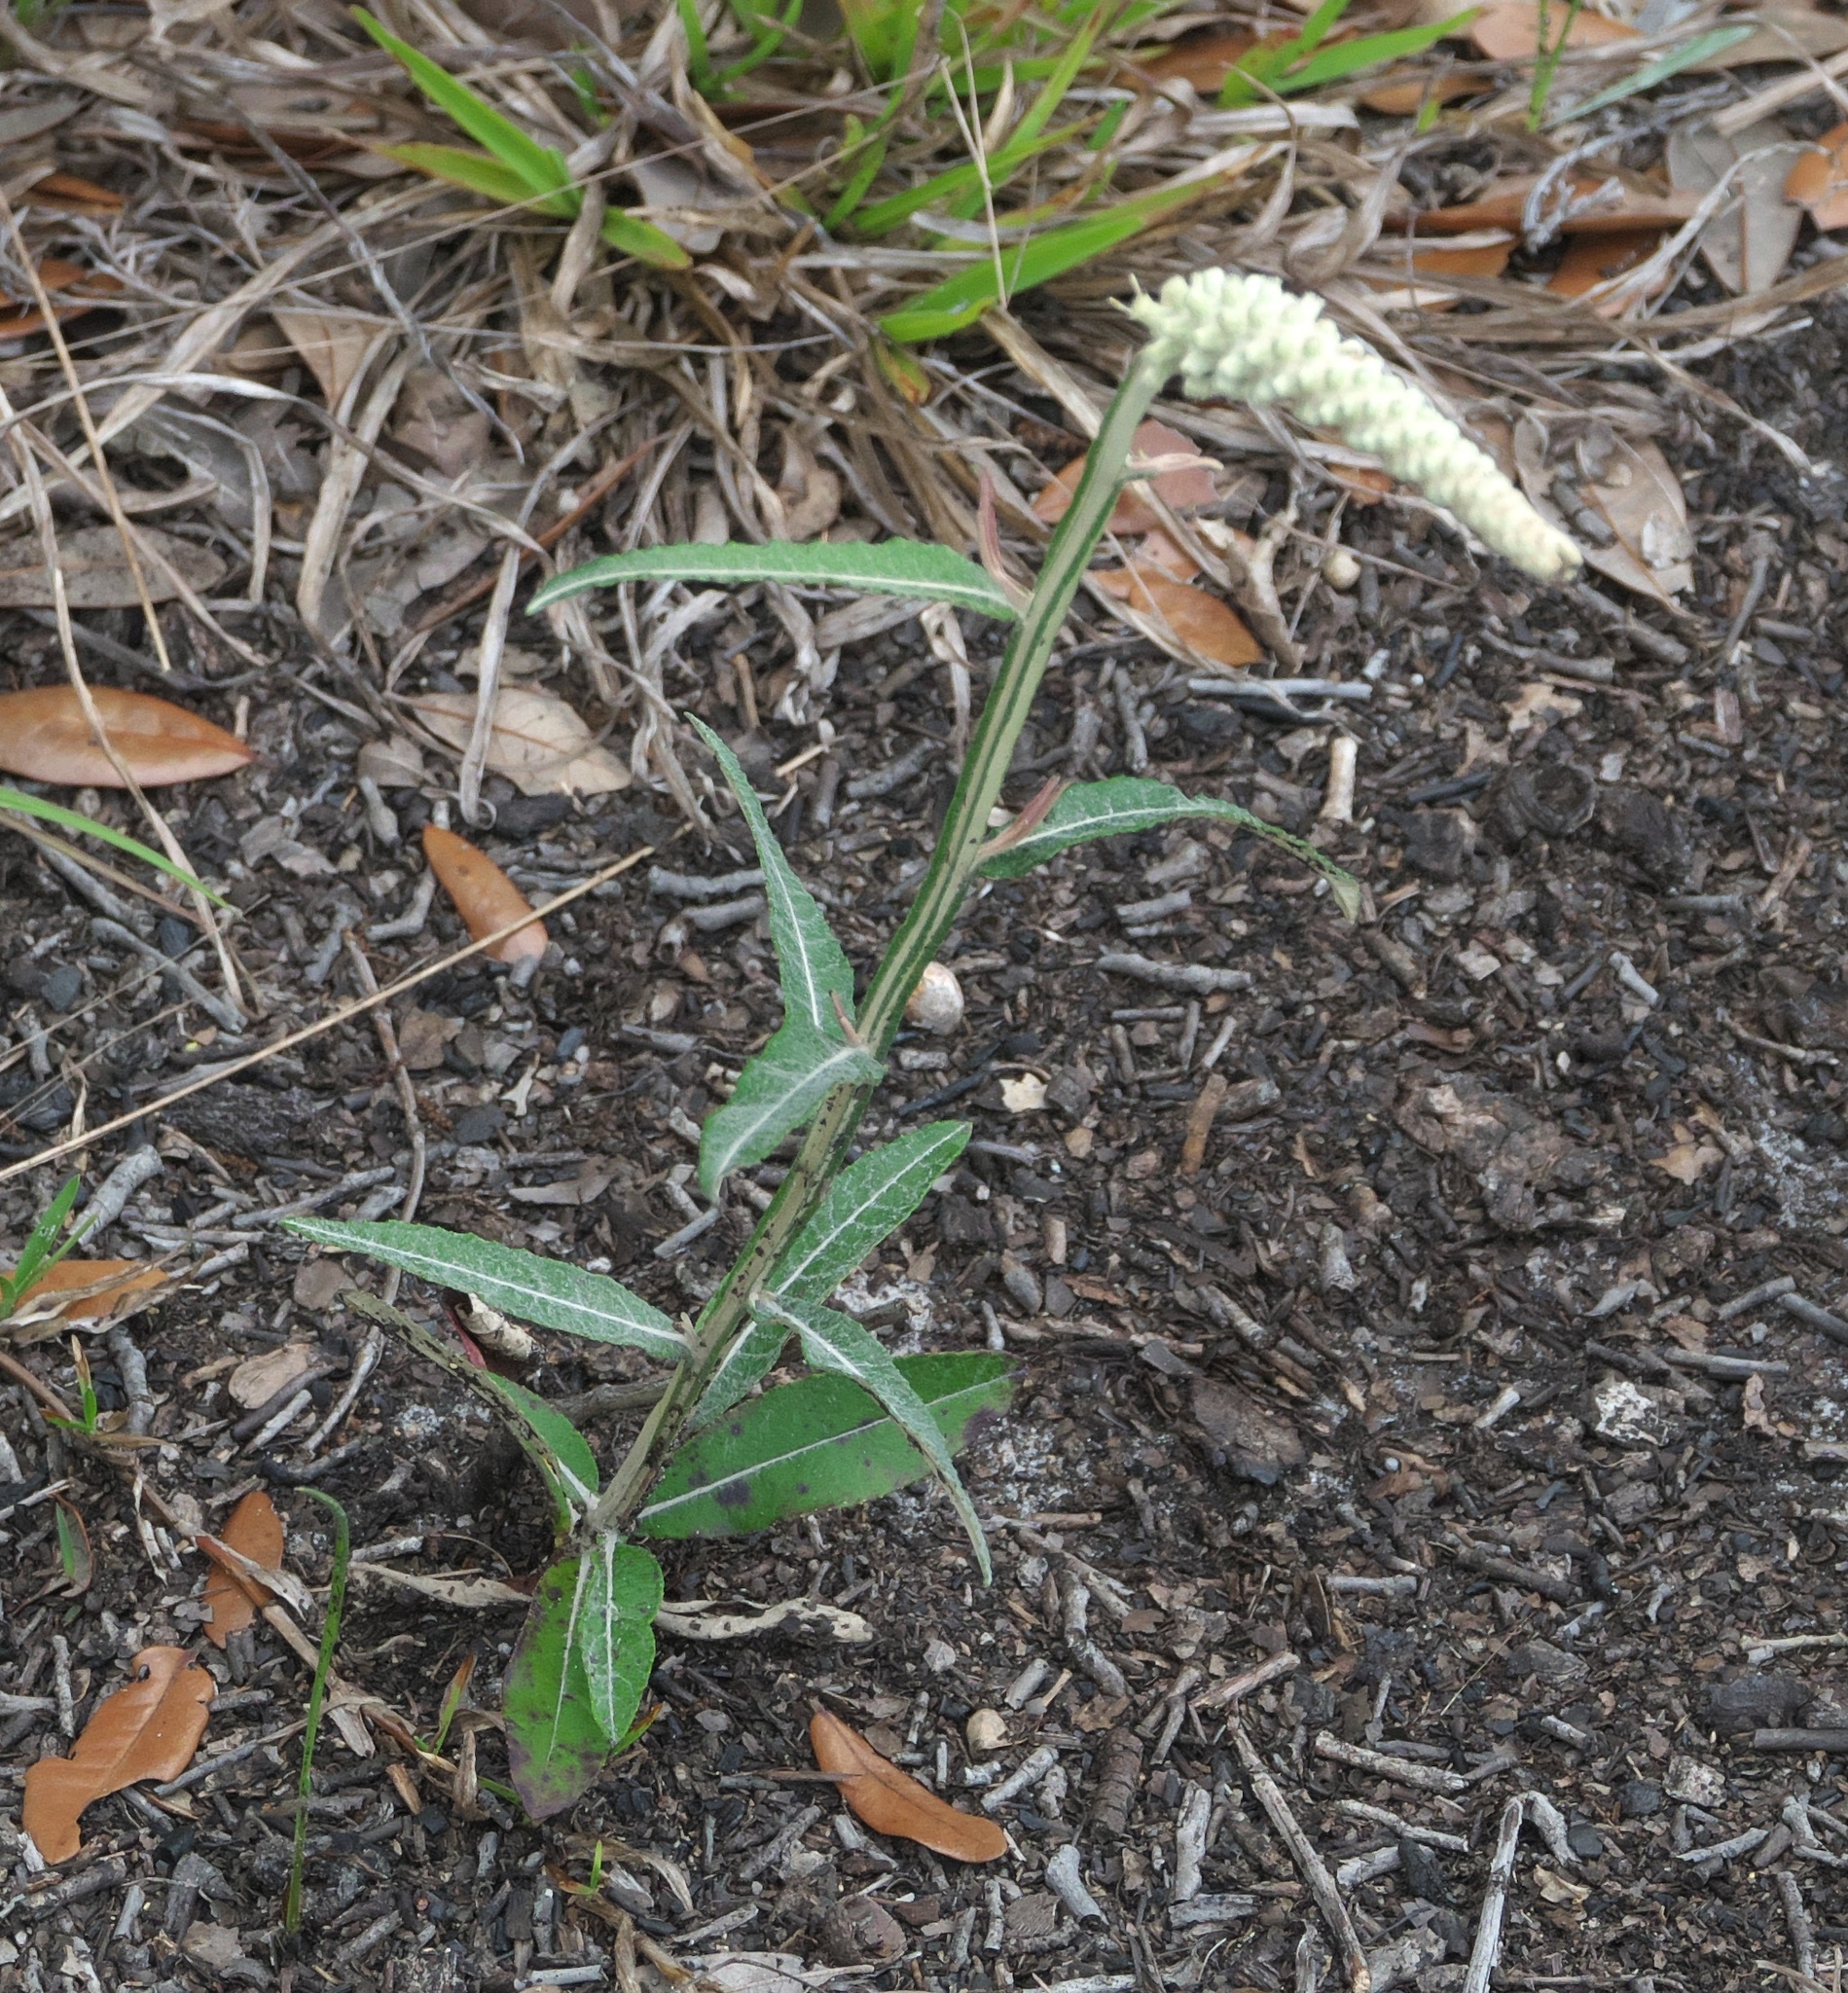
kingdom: Plantae
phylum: Tracheophyta
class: Magnoliopsida
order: Asterales
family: Asteraceae
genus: Pterocaulon
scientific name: Pterocaulon pycnostachyum
